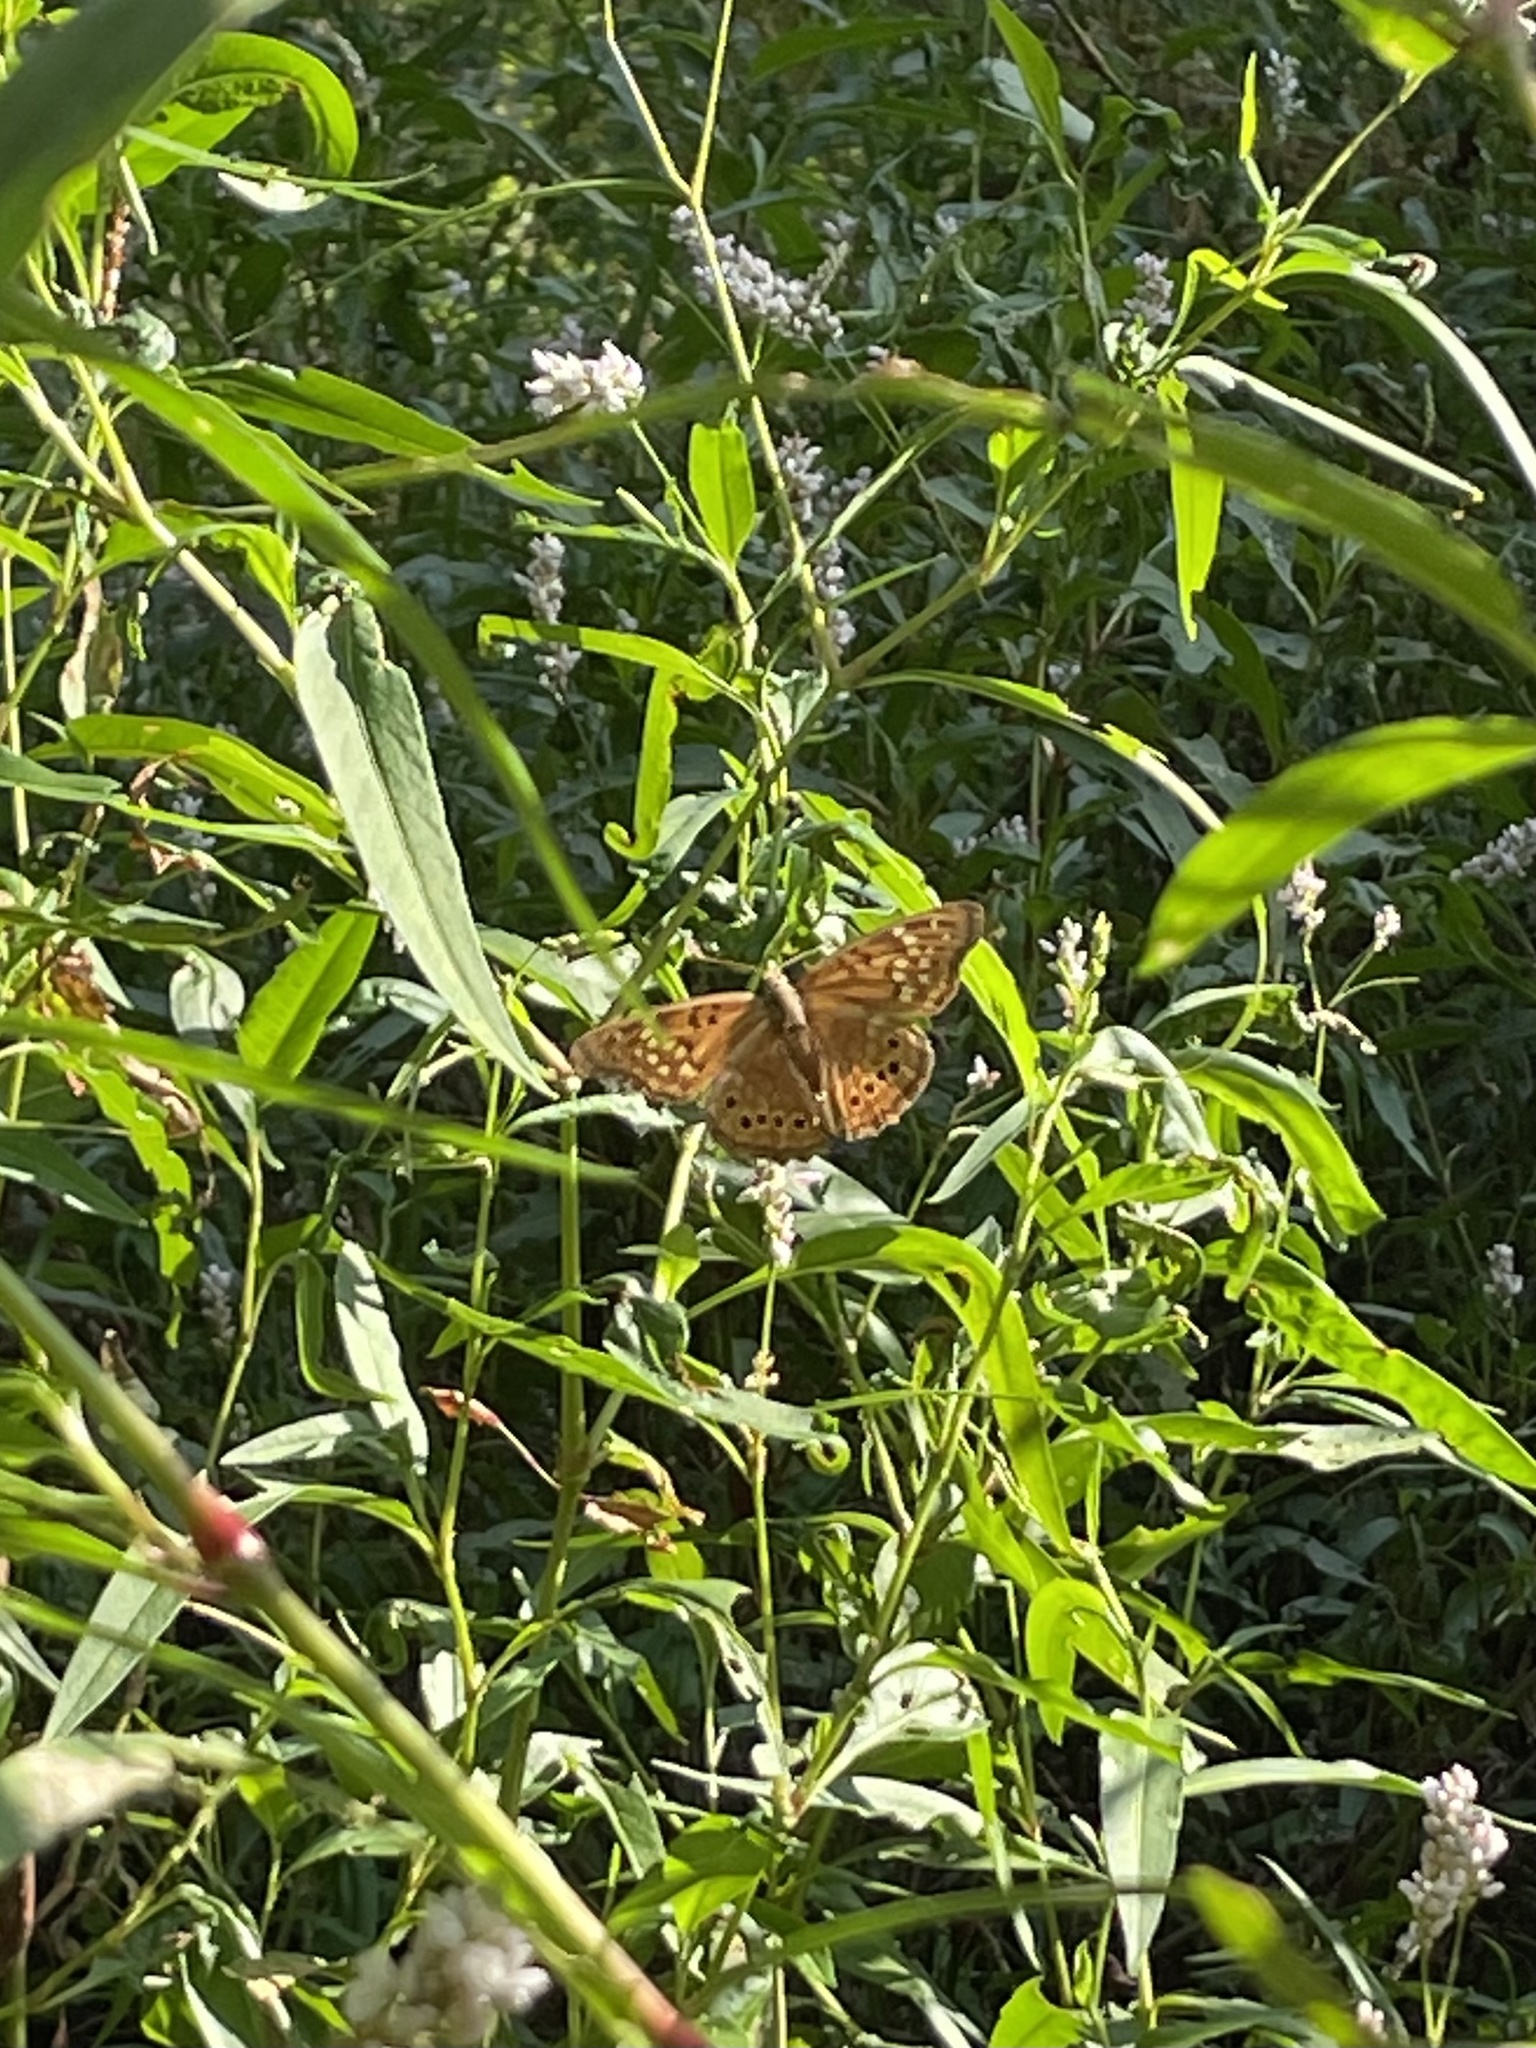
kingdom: Animalia
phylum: Arthropoda
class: Insecta
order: Lepidoptera
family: Nymphalidae
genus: Asterocampa
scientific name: Asterocampa clyton
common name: Tawny emperor
